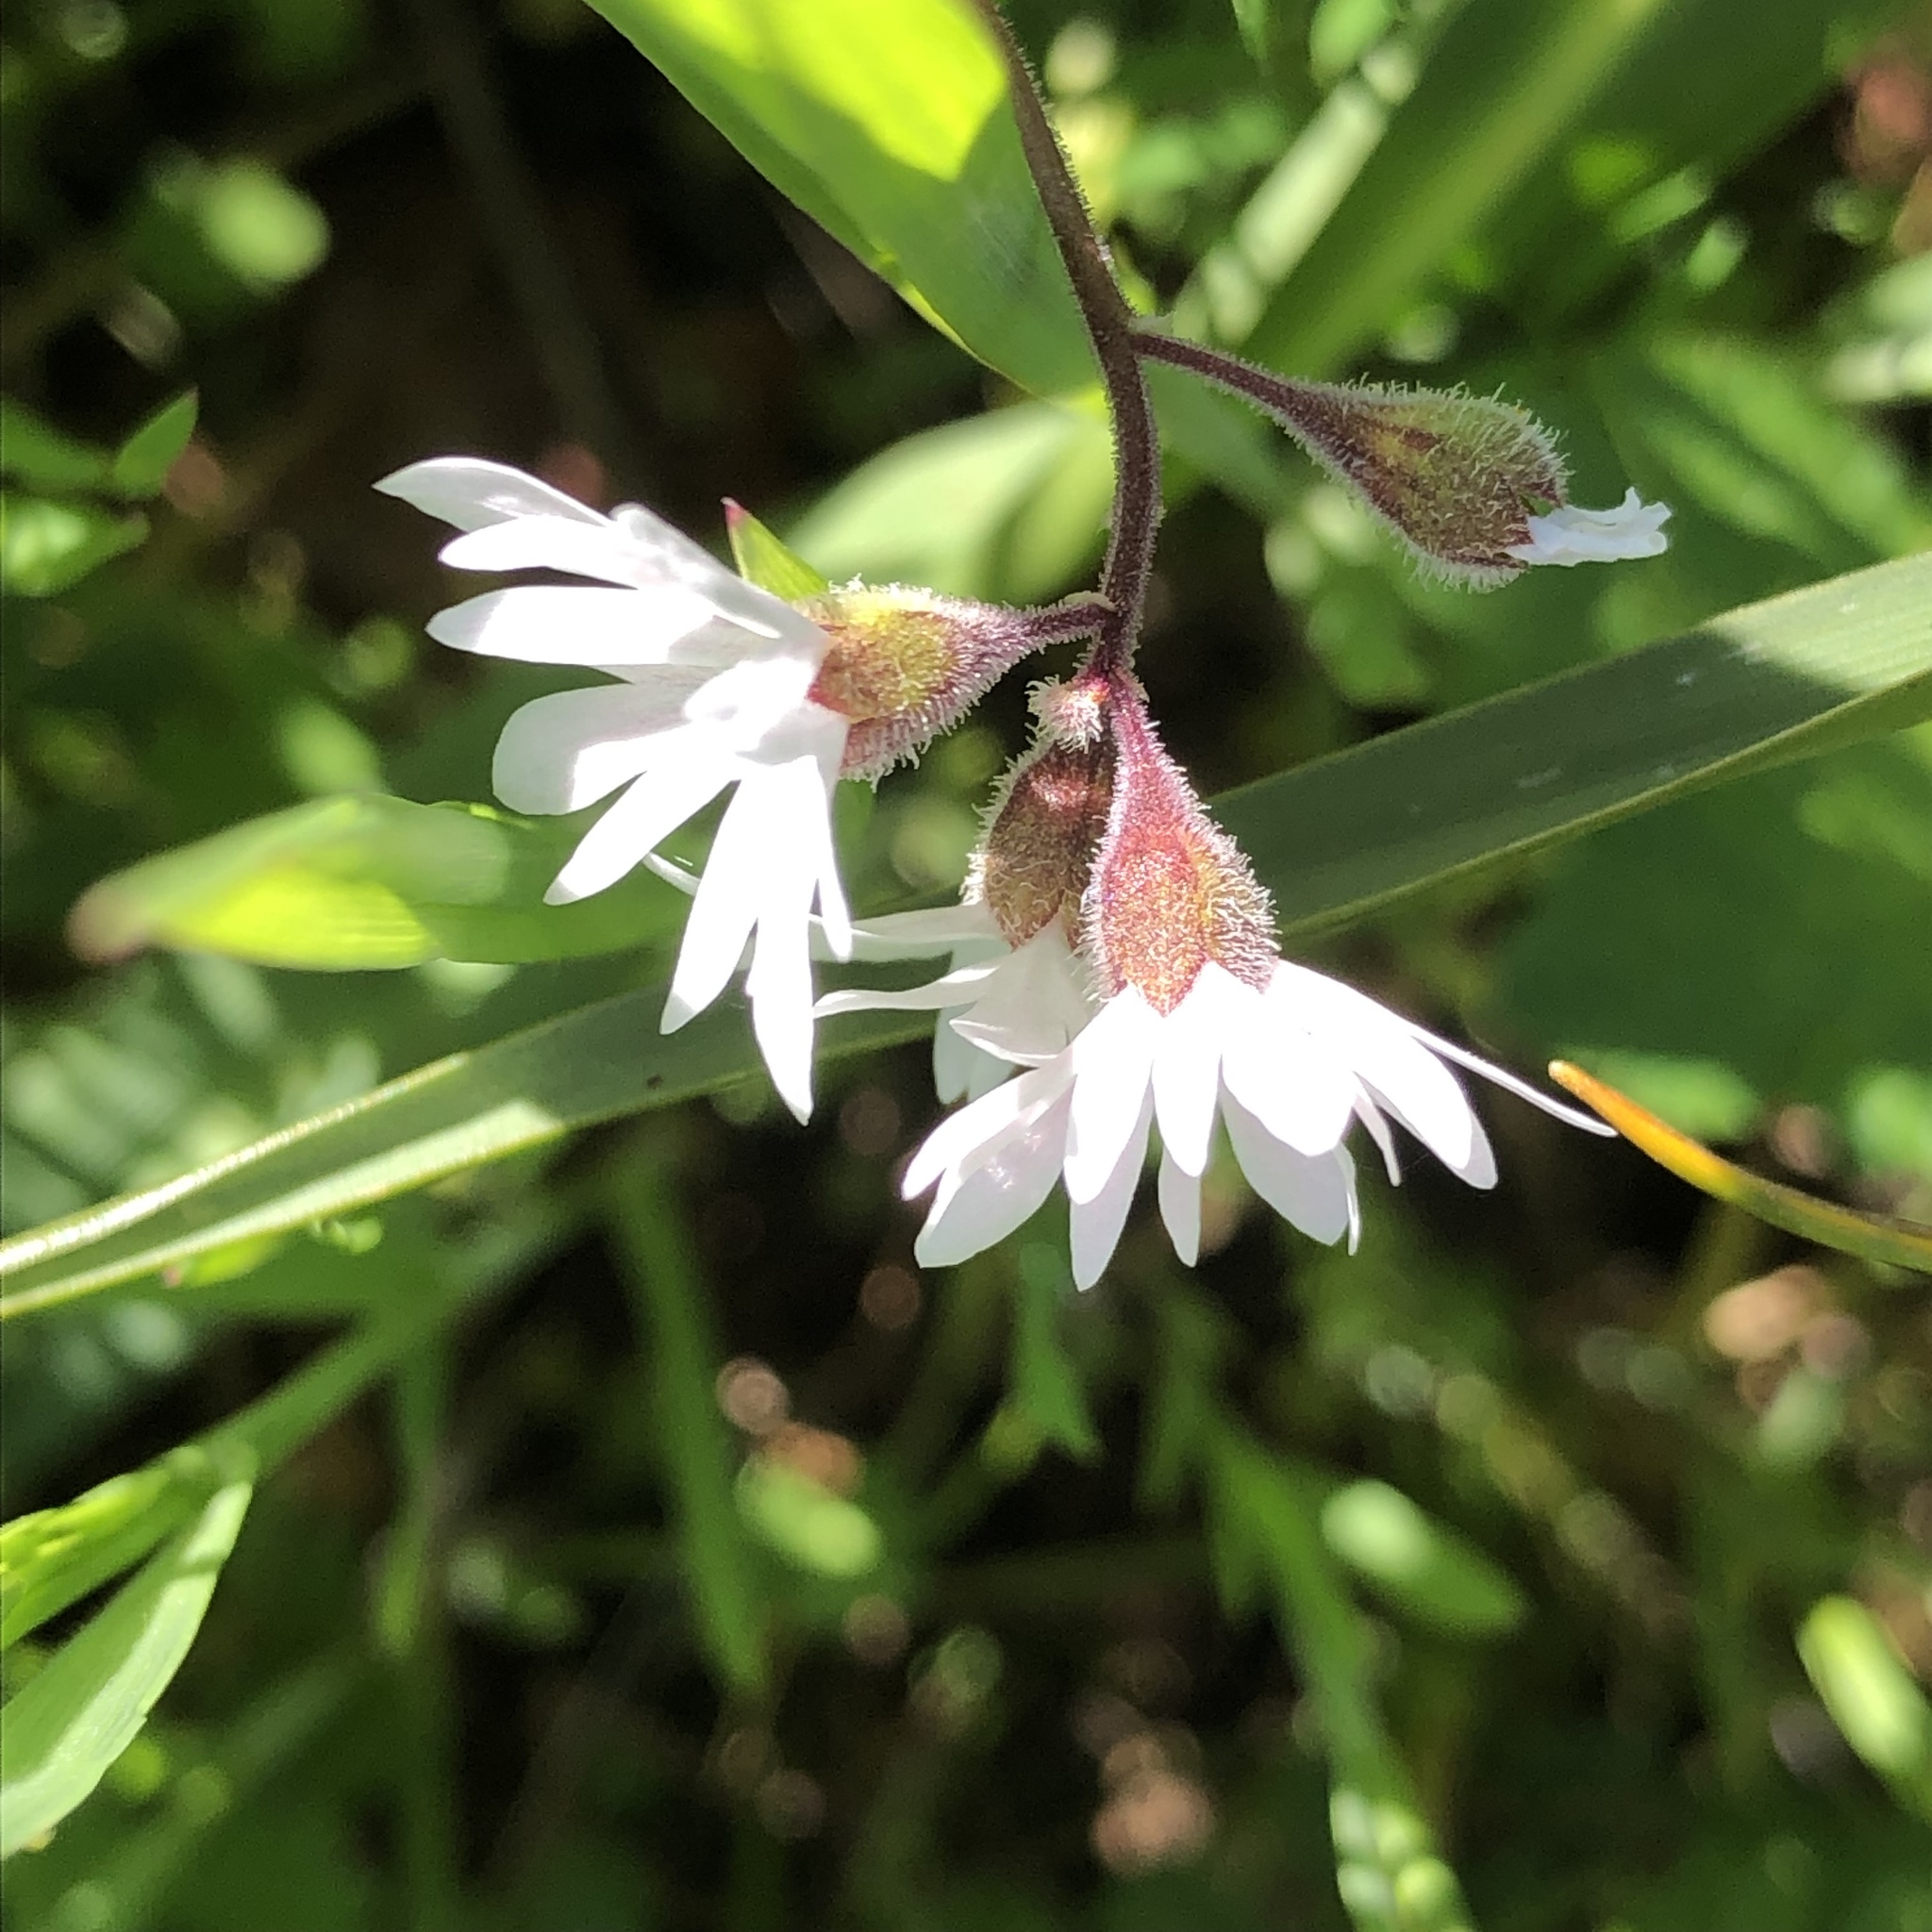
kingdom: Plantae
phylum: Tracheophyta
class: Magnoliopsida
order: Saxifragales
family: Saxifragaceae
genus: Lithophragma
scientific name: Lithophragma parviflorum
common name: Small-flowered fringe-cup
